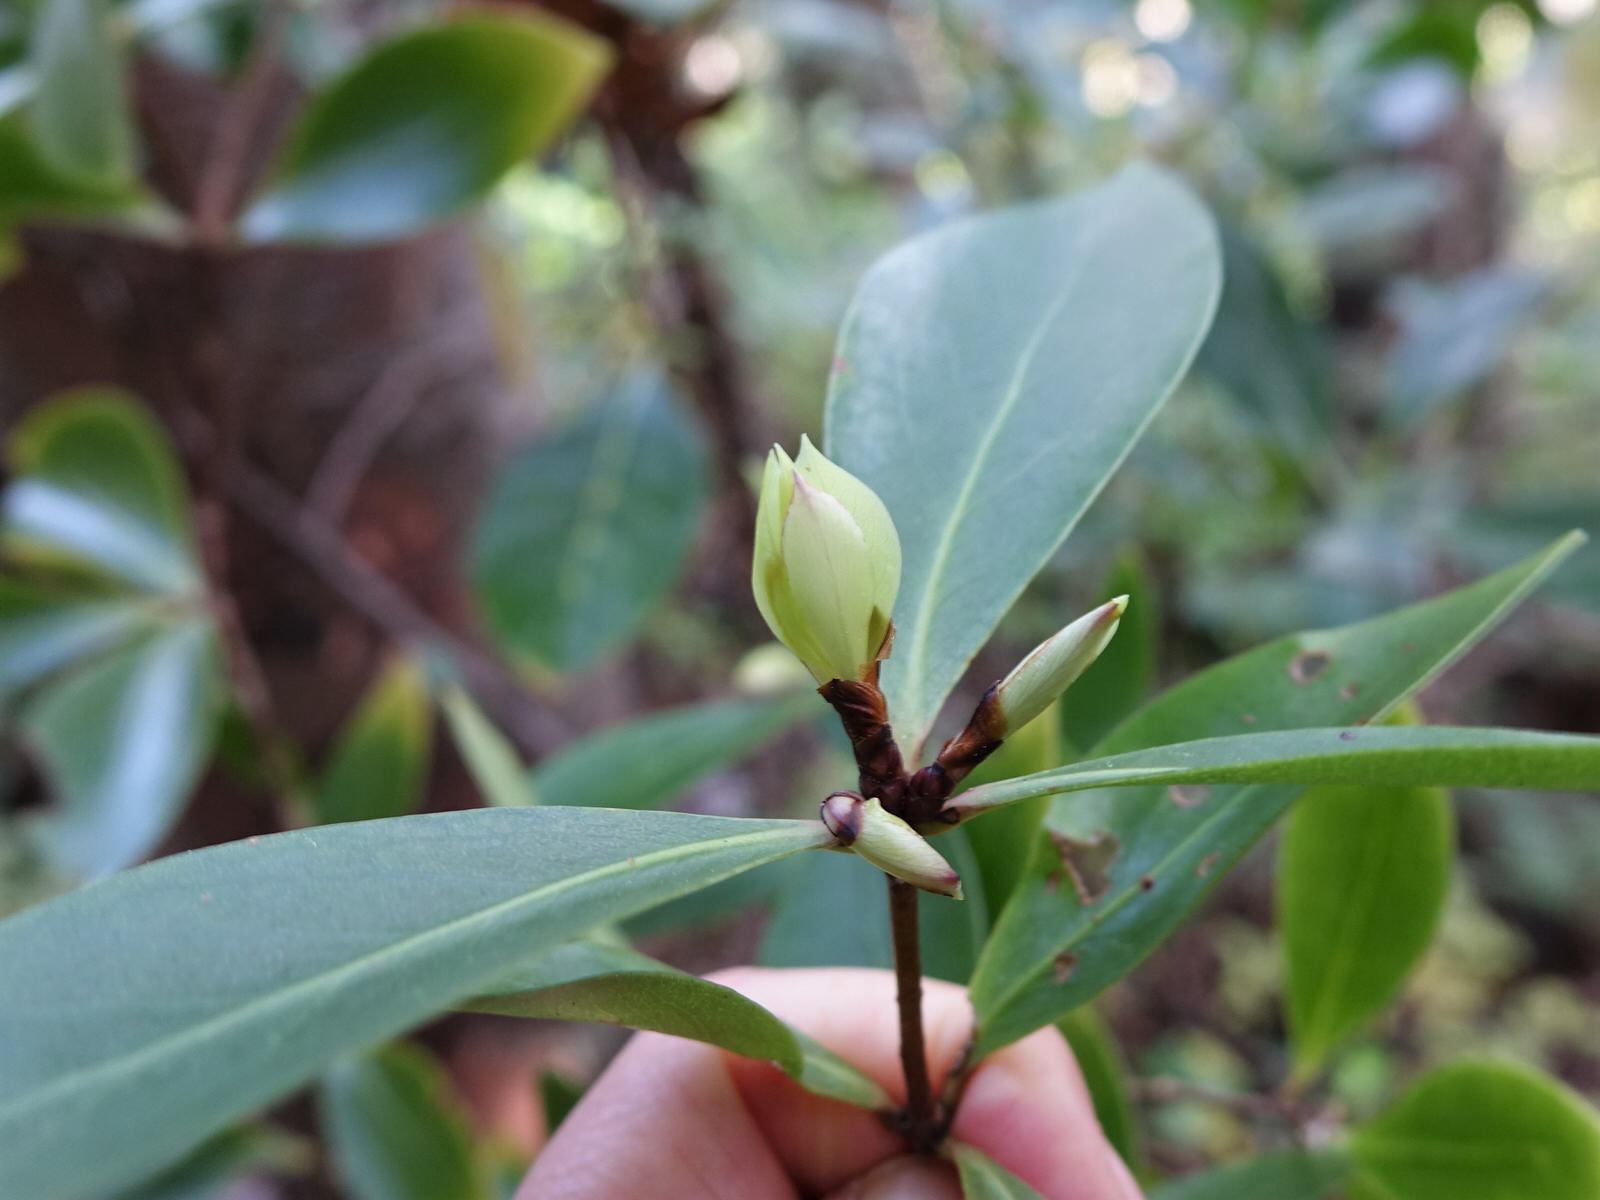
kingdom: Plantae
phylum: Tracheophyta
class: Magnoliopsida
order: Apiales
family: Pittosporaceae
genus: Pittosporum
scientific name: Pittosporum cornifolium
